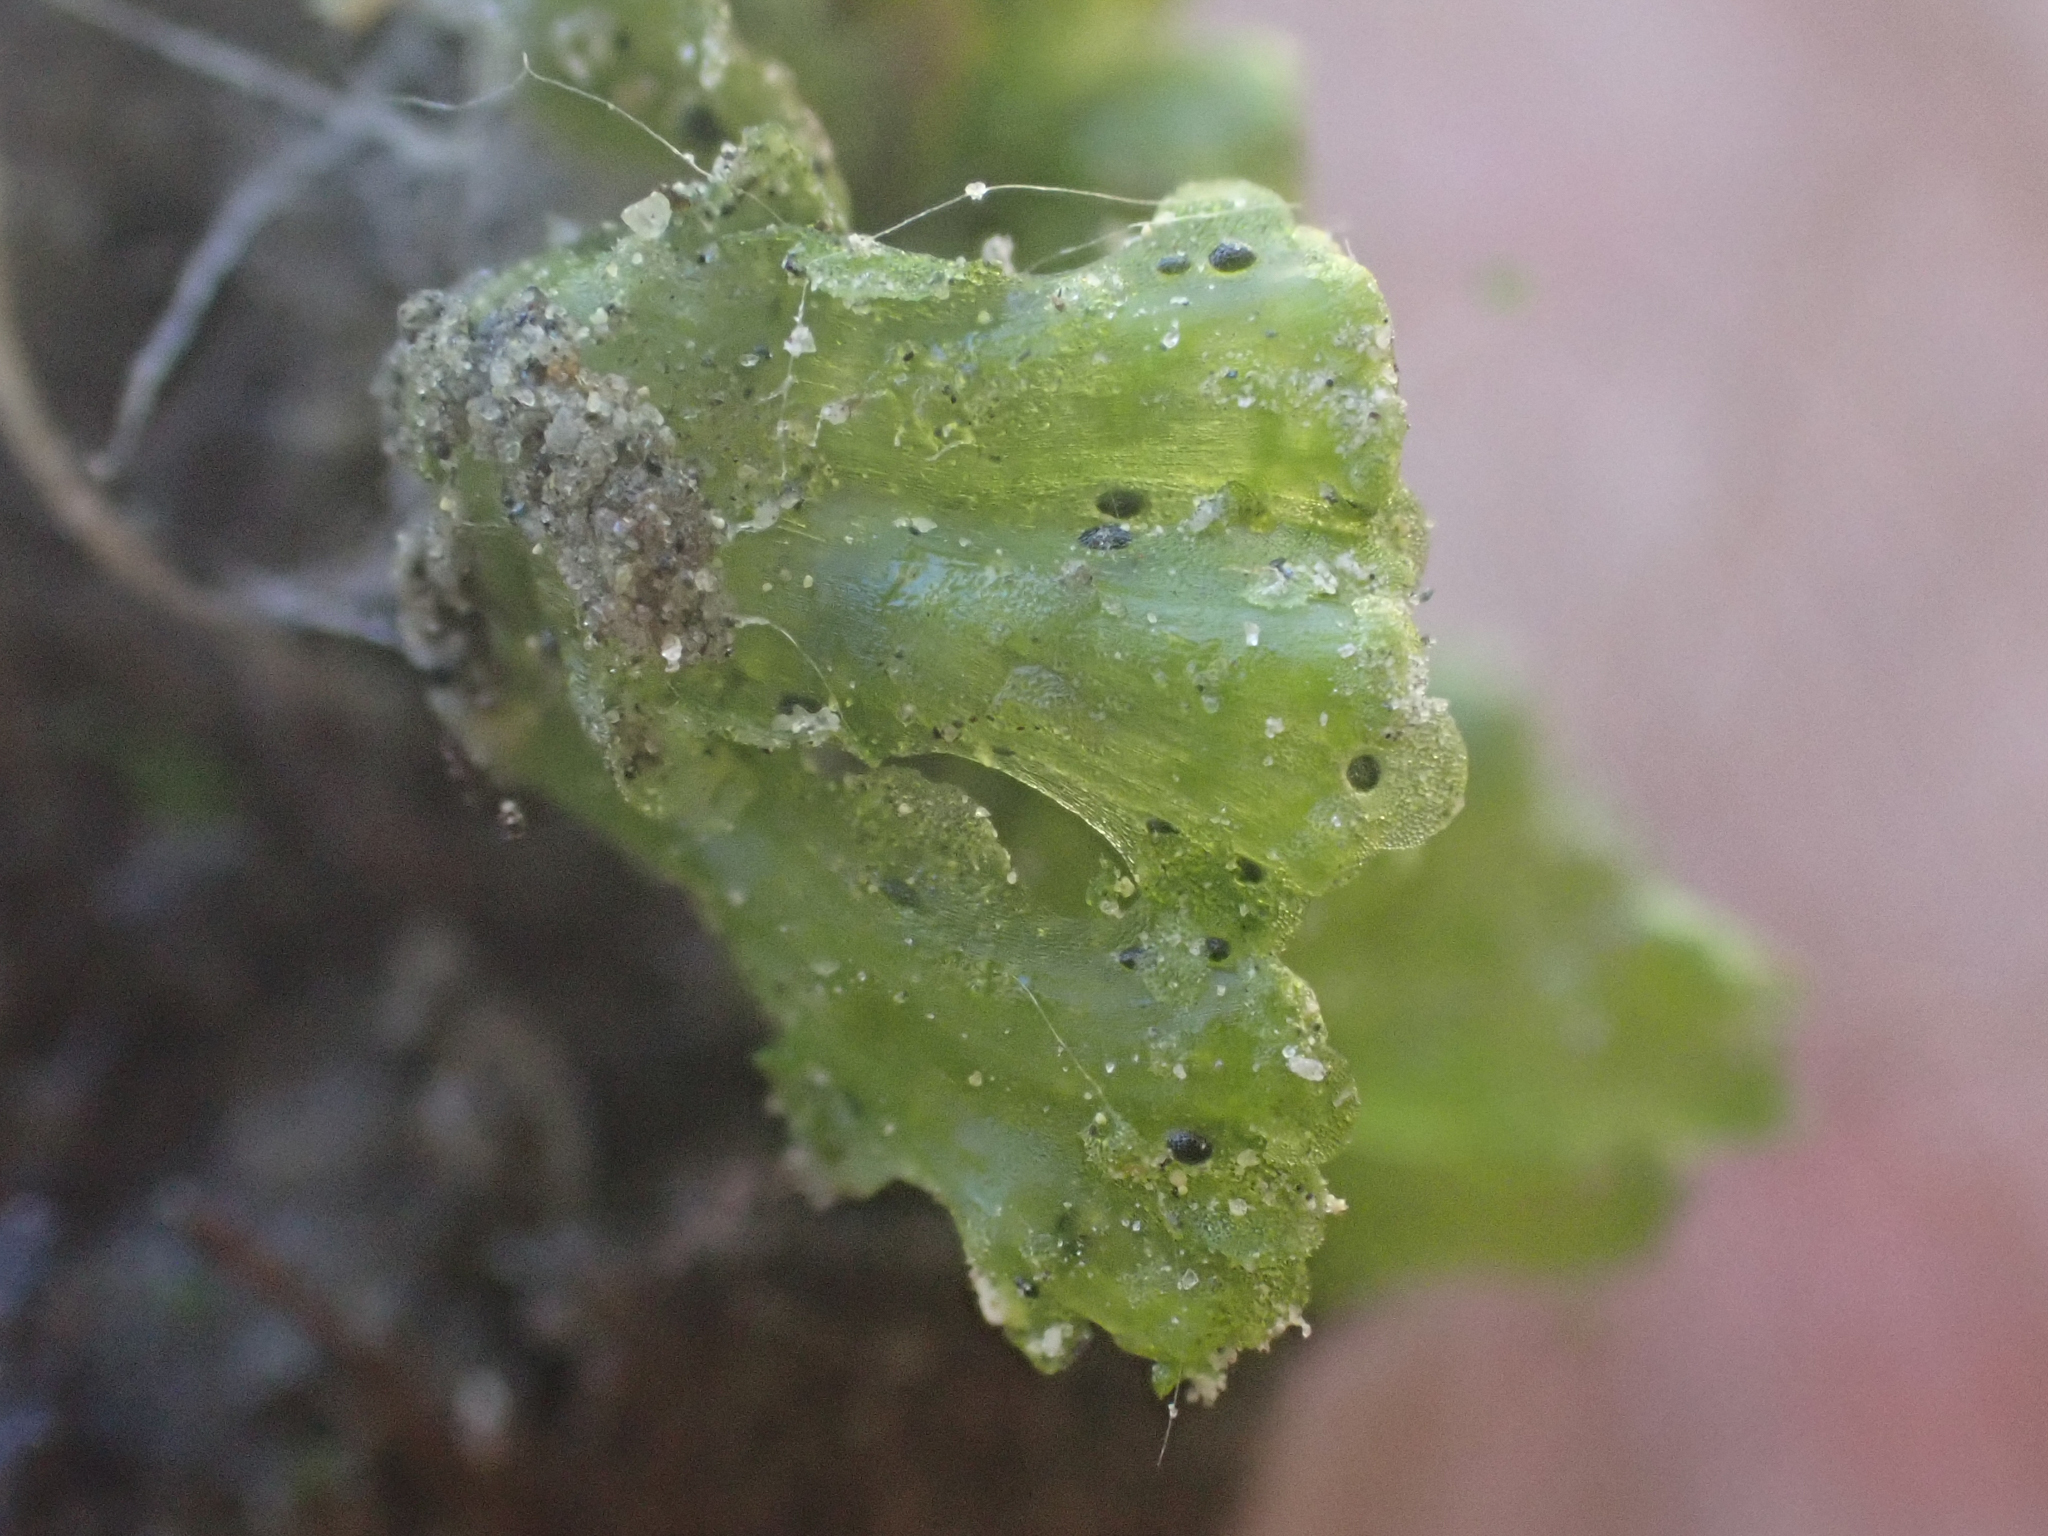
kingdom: Plantae
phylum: Marchantiophyta
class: Marchantiopsida
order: Blasiales
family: Blasiaceae
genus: Blasia
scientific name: Blasia pusilla
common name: Common kettlewort
